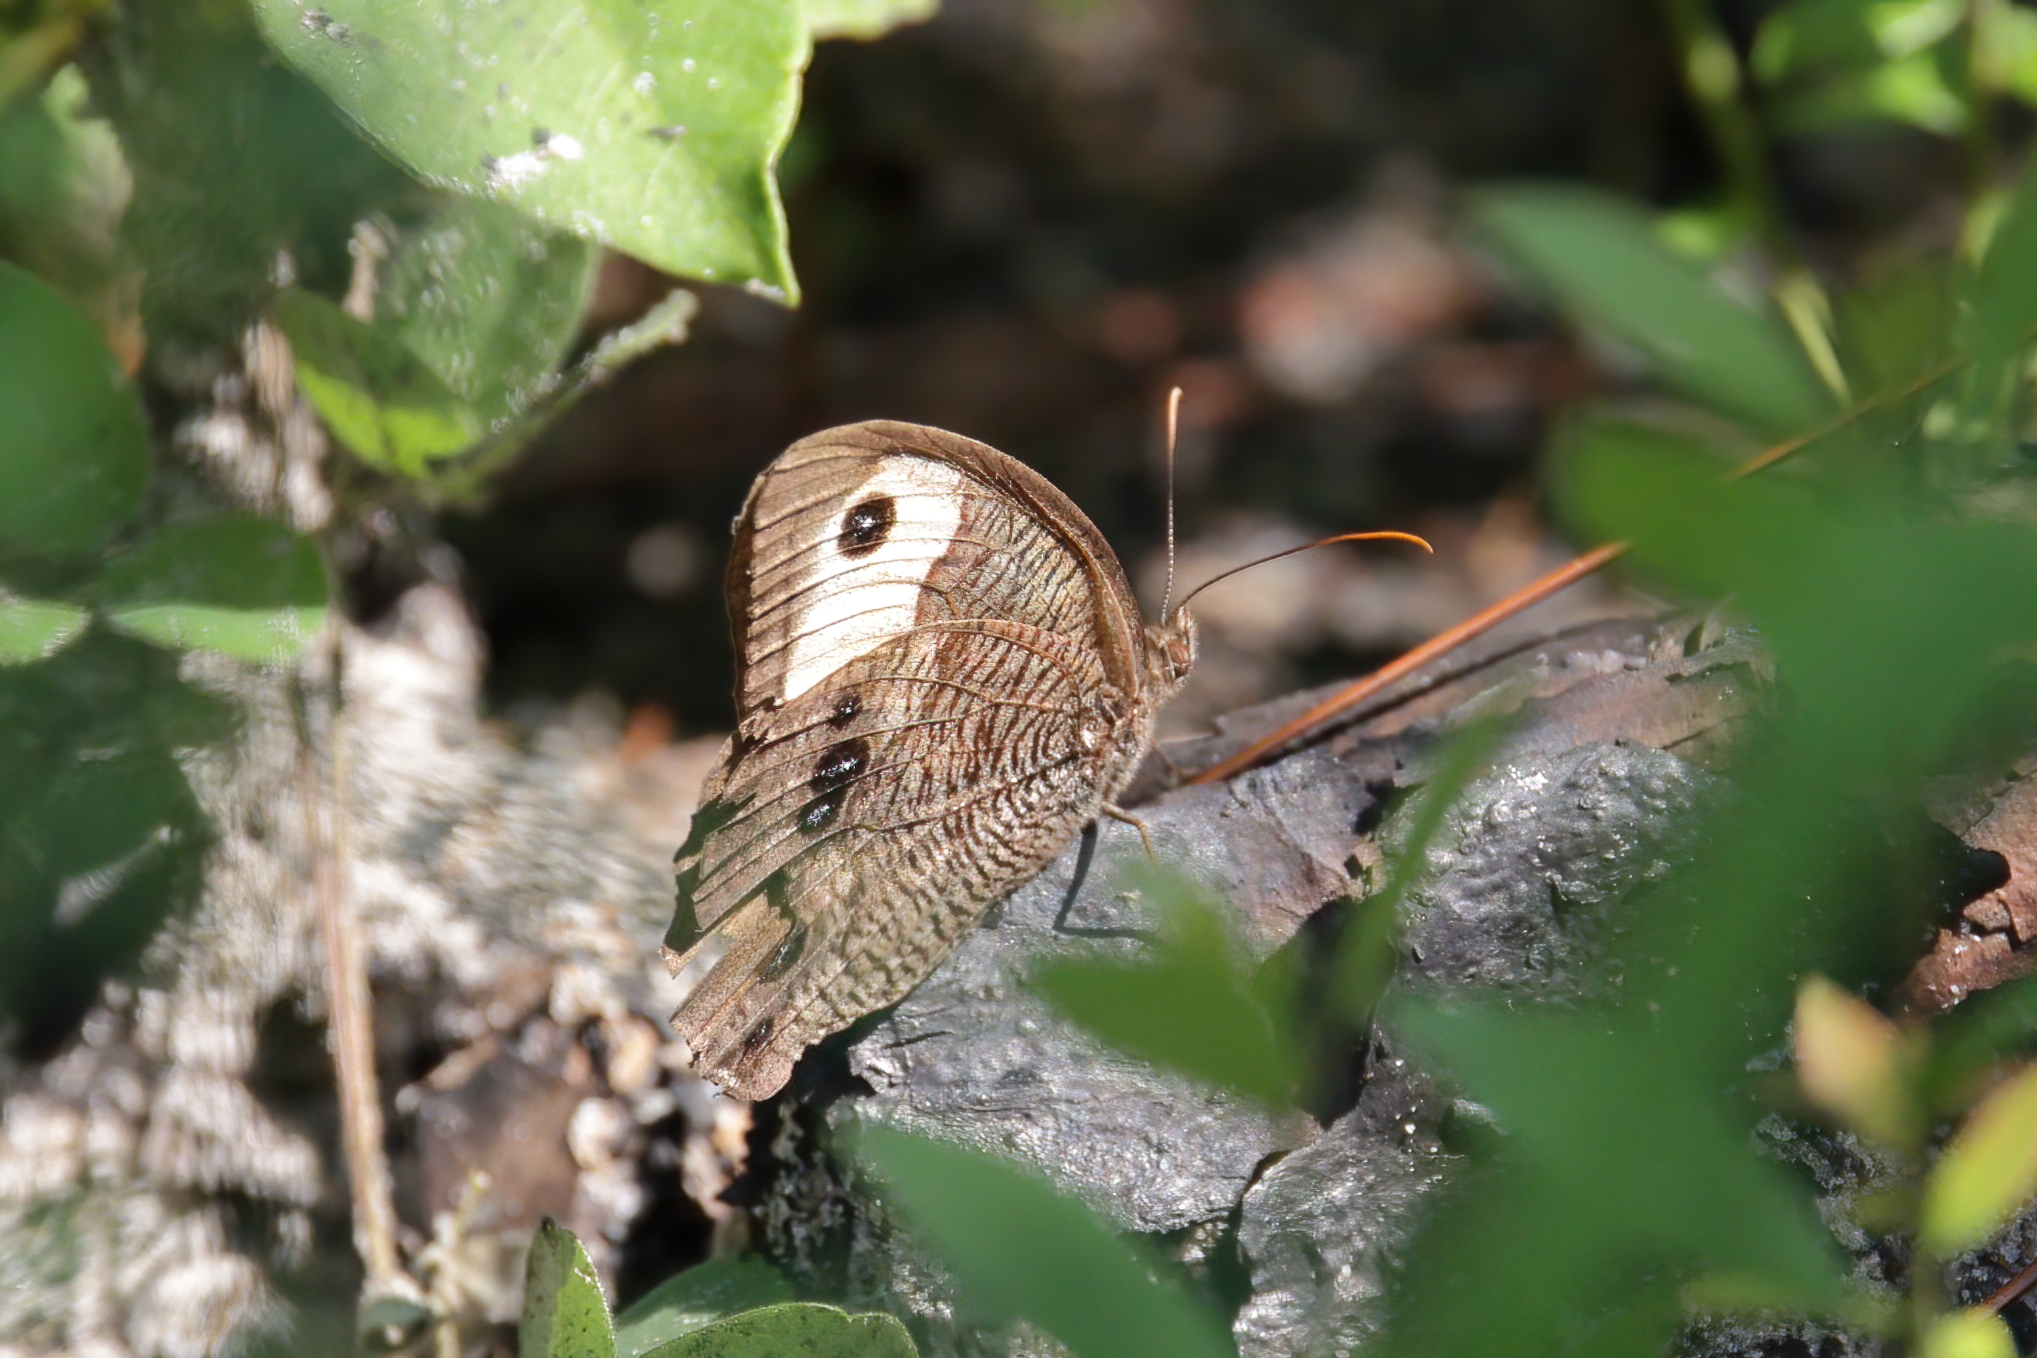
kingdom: Animalia
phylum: Arthropoda
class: Insecta
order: Lepidoptera
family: Nymphalidae
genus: Cercyonis
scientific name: Cercyonis pegala
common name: Common wood-nymph
